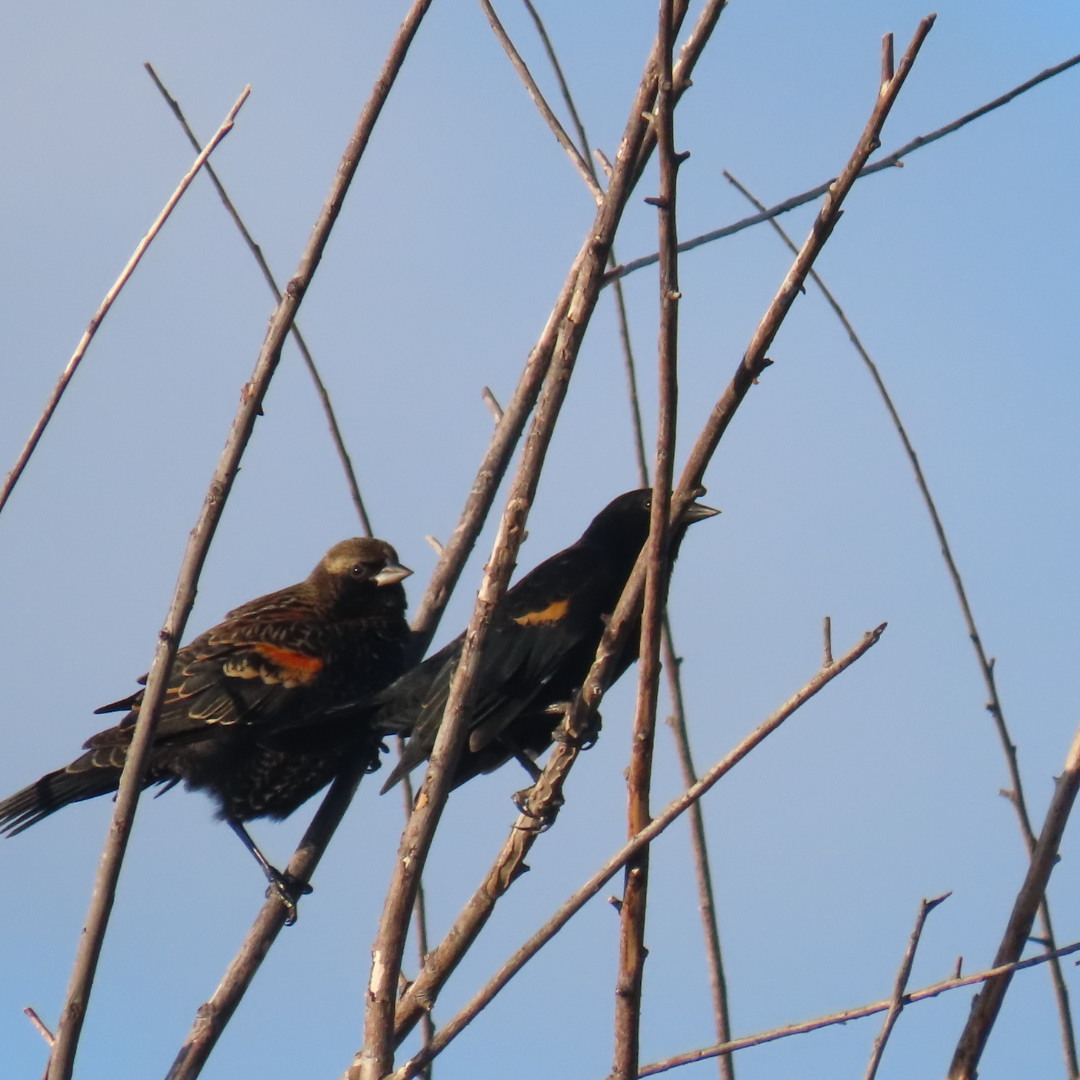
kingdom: Animalia
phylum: Chordata
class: Aves
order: Passeriformes
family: Icteridae
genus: Agelaius
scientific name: Agelaius phoeniceus
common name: Red-winged blackbird
